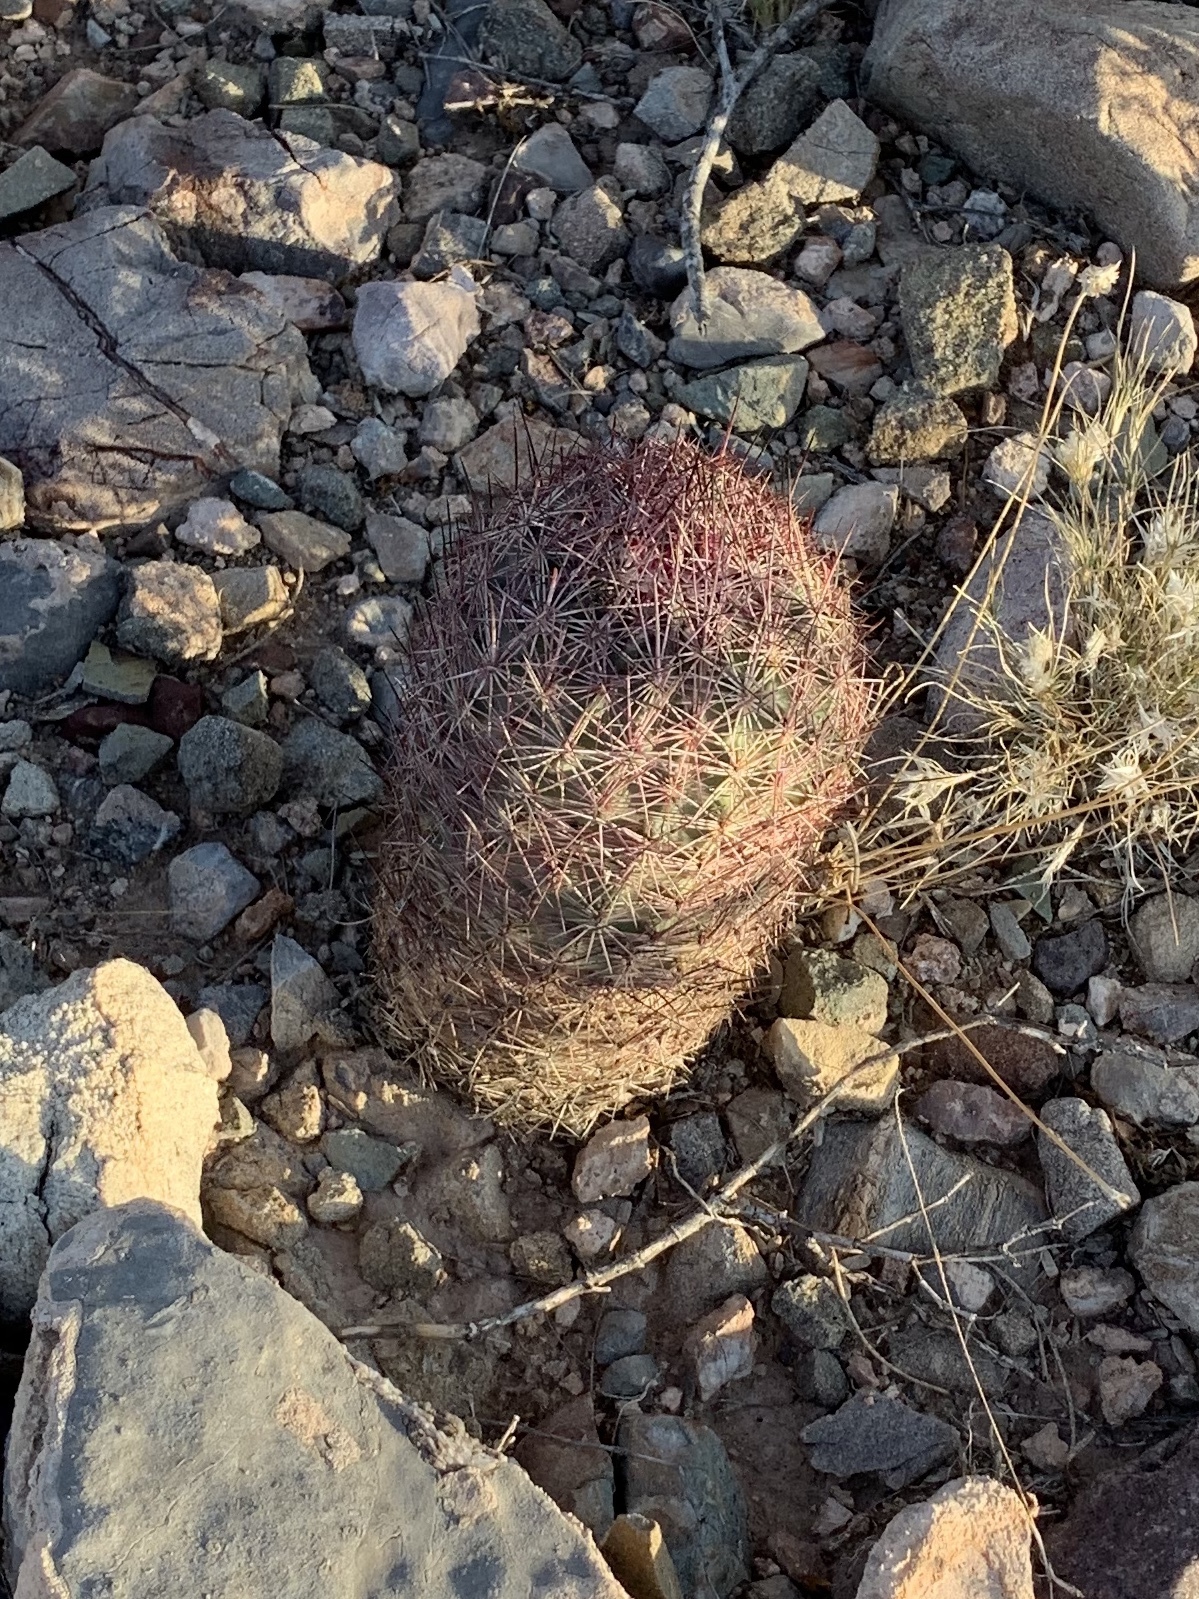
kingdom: Plantae
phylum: Tracheophyta
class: Magnoliopsida
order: Caryophyllales
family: Cactaceae
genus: Sclerocactus
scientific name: Sclerocactus johnsonii
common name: Eight-spine fishhook cactus
